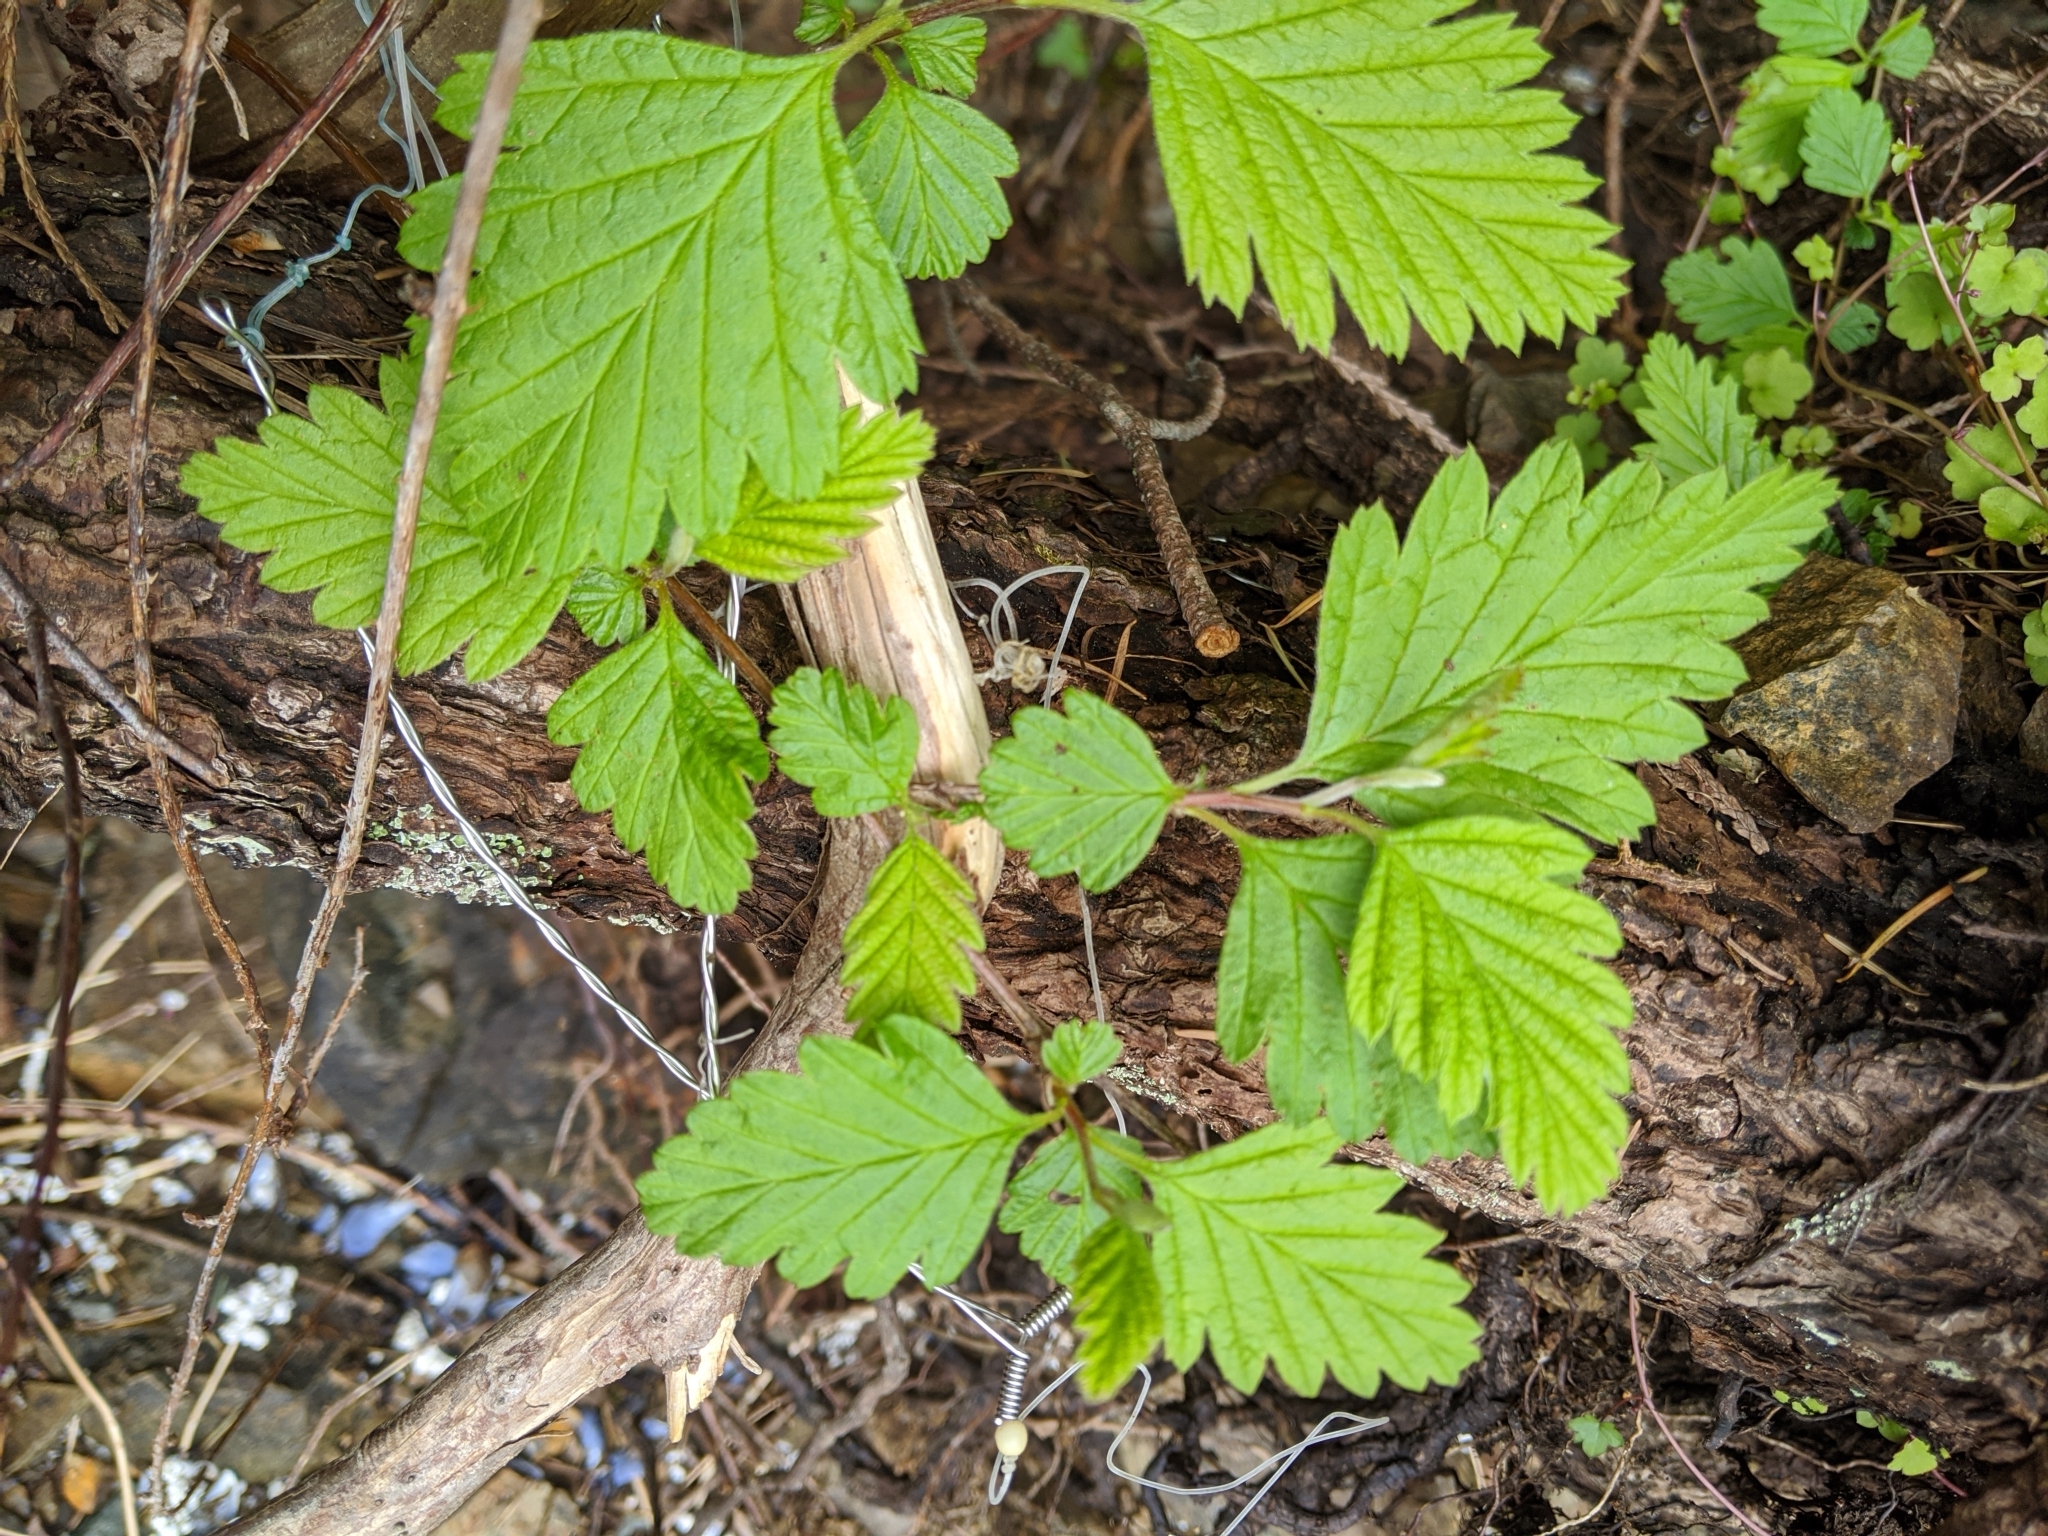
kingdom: Plantae
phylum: Tracheophyta
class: Magnoliopsida
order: Rosales
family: Rosaceae
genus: Holodiscus
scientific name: Holodiscus discolor
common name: Oceanspray
